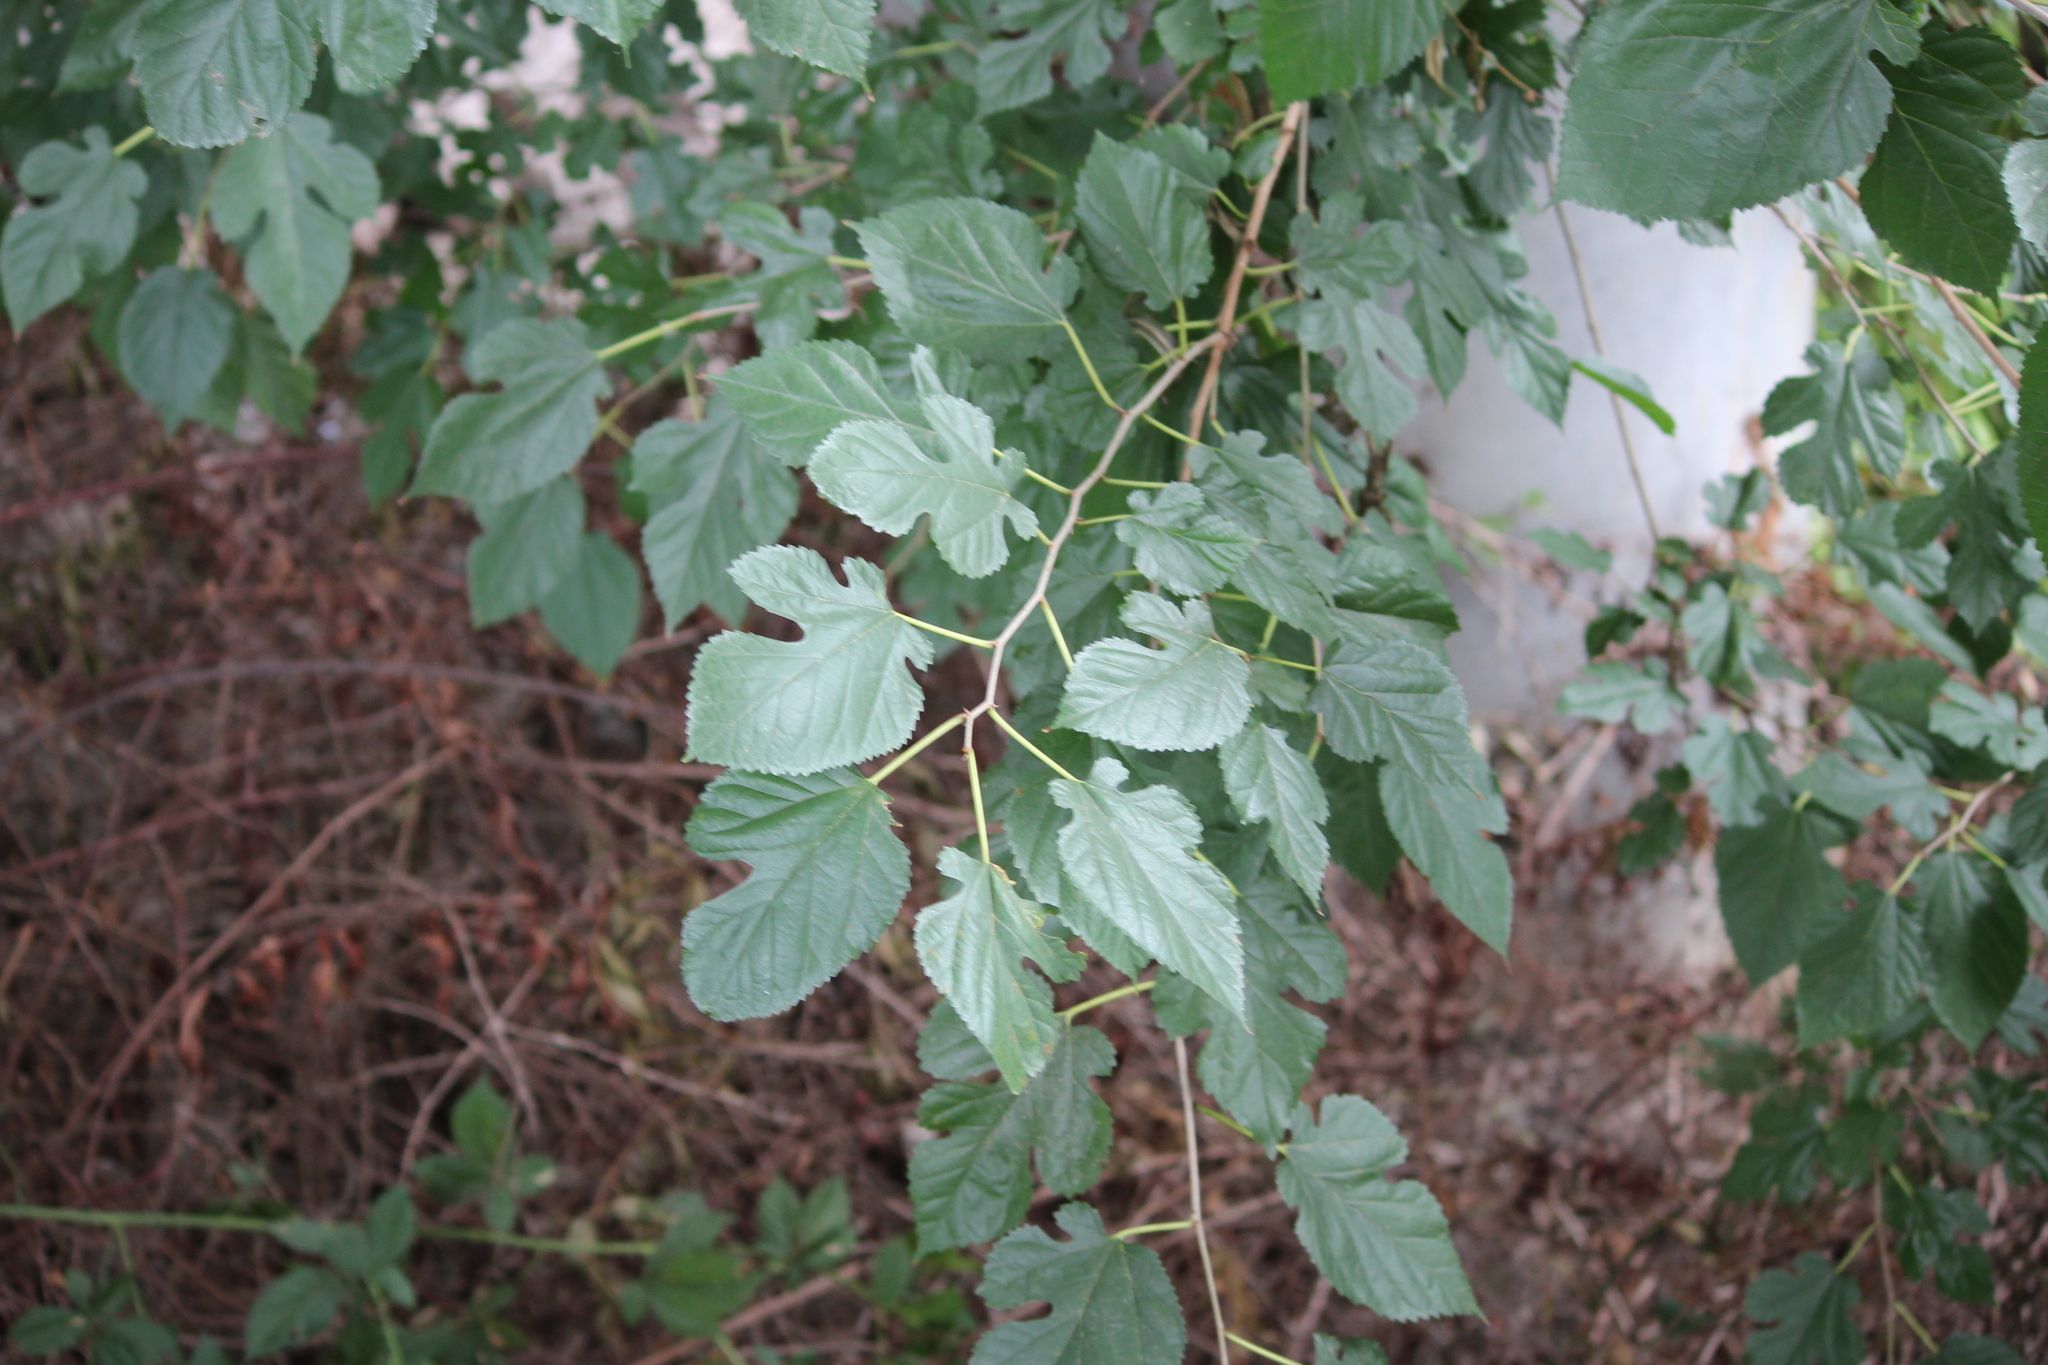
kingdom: Plantae
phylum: Tracheophyta
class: Magnoliopsida
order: Rosales
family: Moraceae
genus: Morus
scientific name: Morus alba
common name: White mulberry
